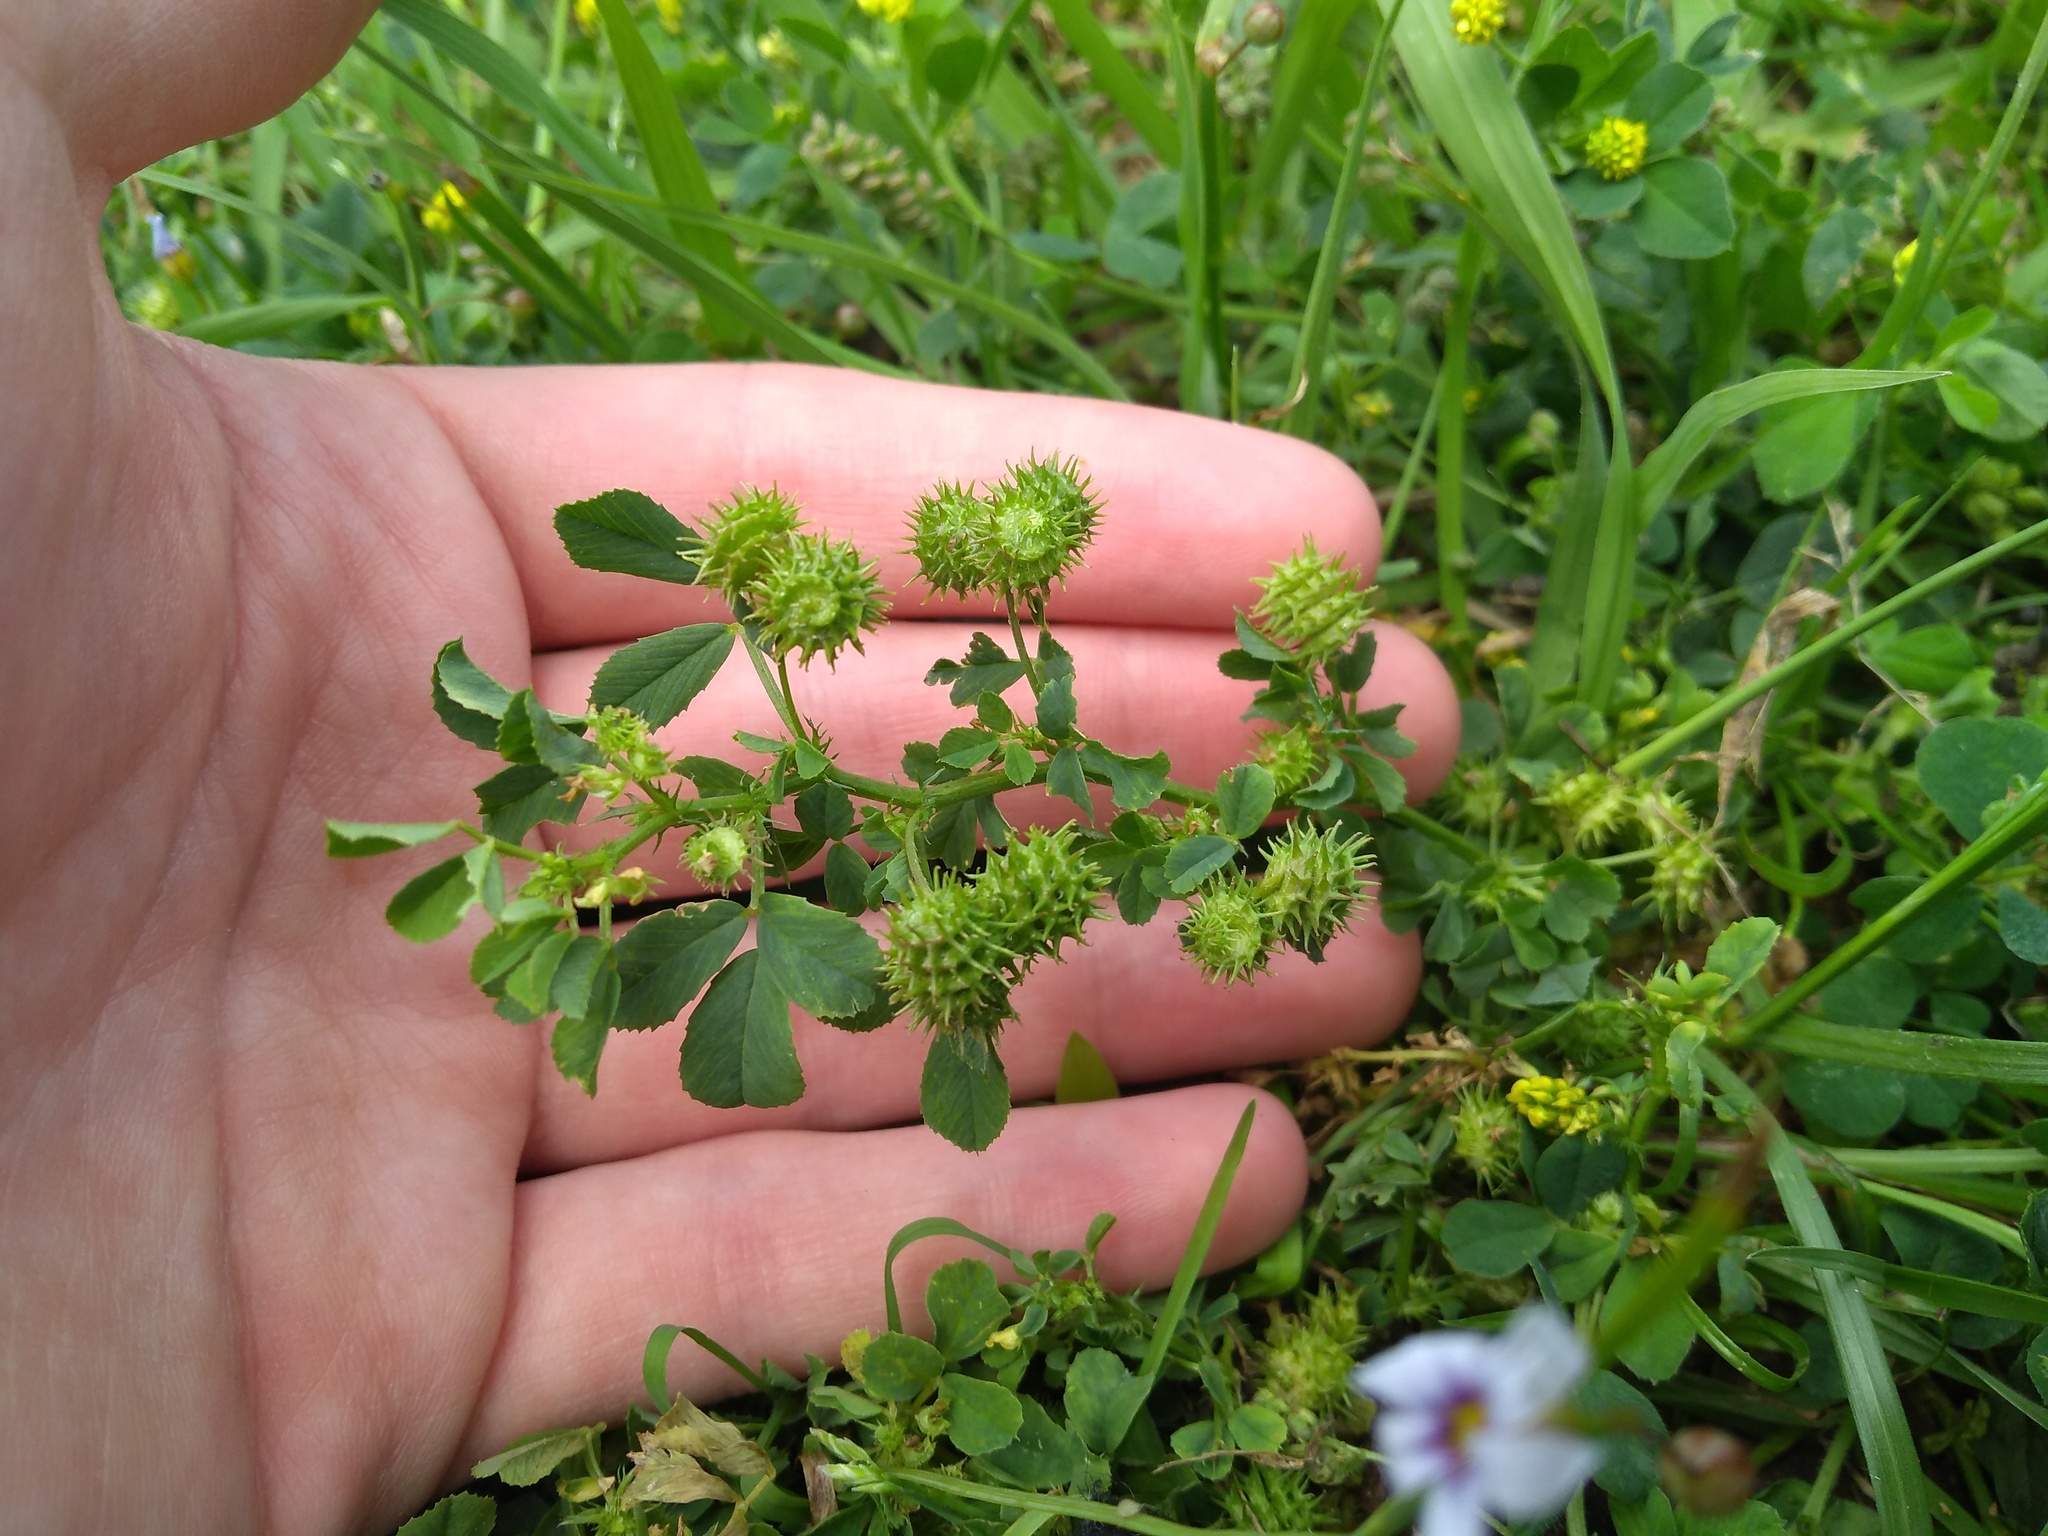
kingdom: Plantae
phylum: Tracheophyta
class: Magnoliopsida
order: Fabales
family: Fabaceae
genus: Medicago
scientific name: Medicago polymorpha
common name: Burclover
